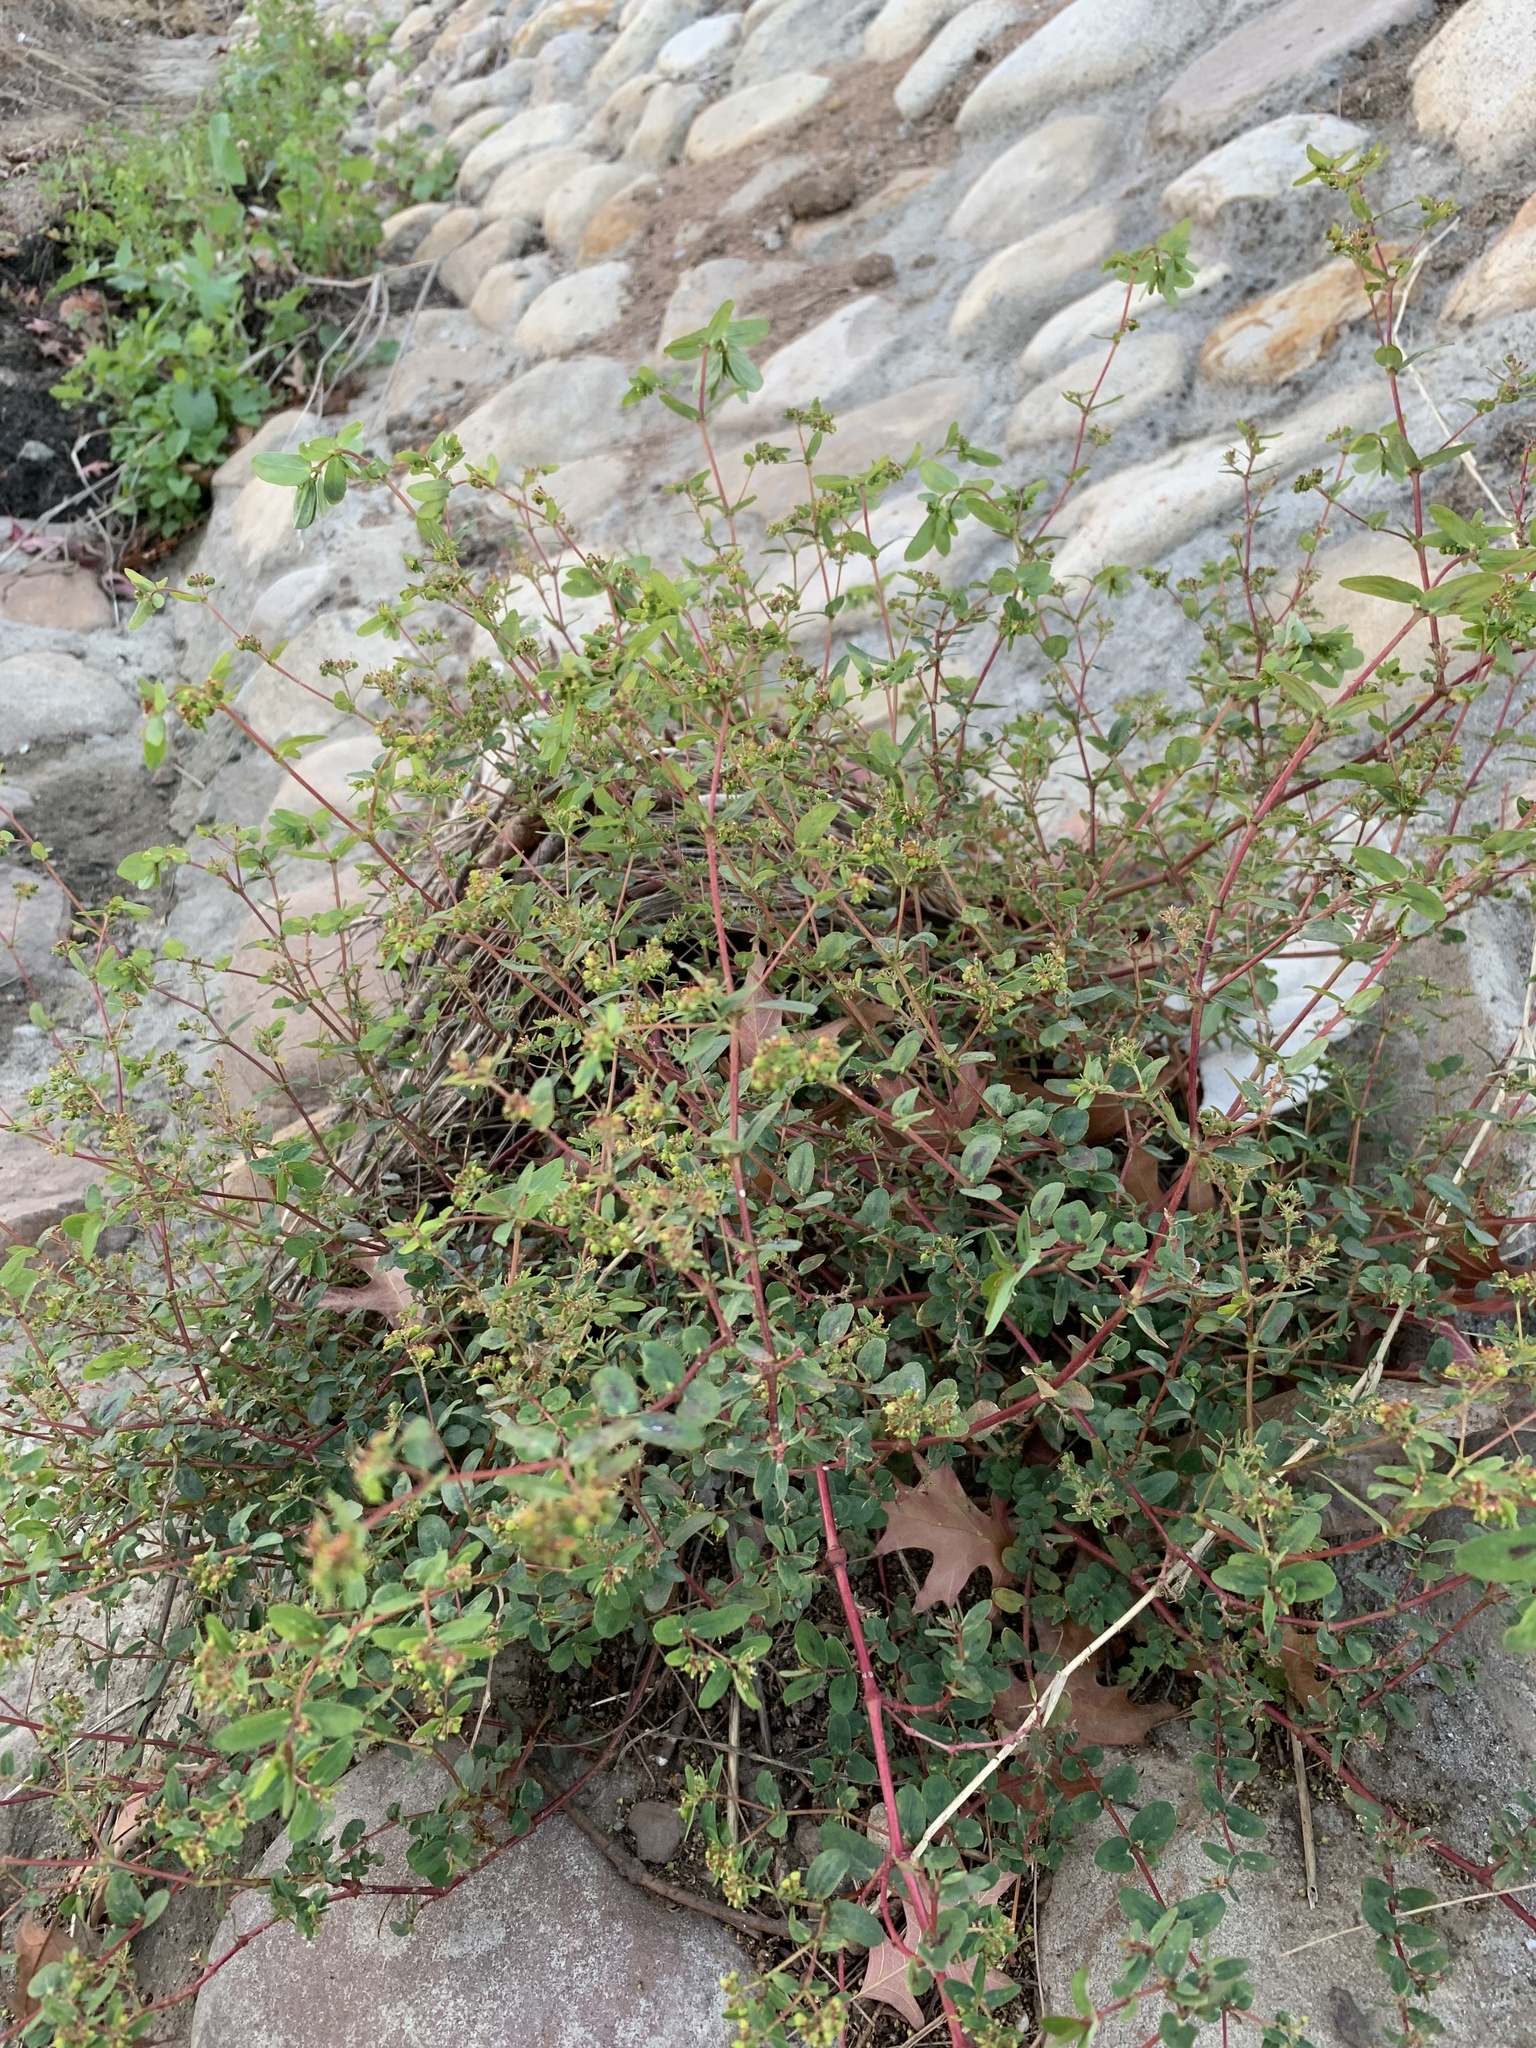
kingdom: Plantae
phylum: Tracheophyta
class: Magnoliopsida
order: Malpighiales
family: Euphorbiaceae
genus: Euphorbia
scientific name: Euphorbia nutans
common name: Eyebane
